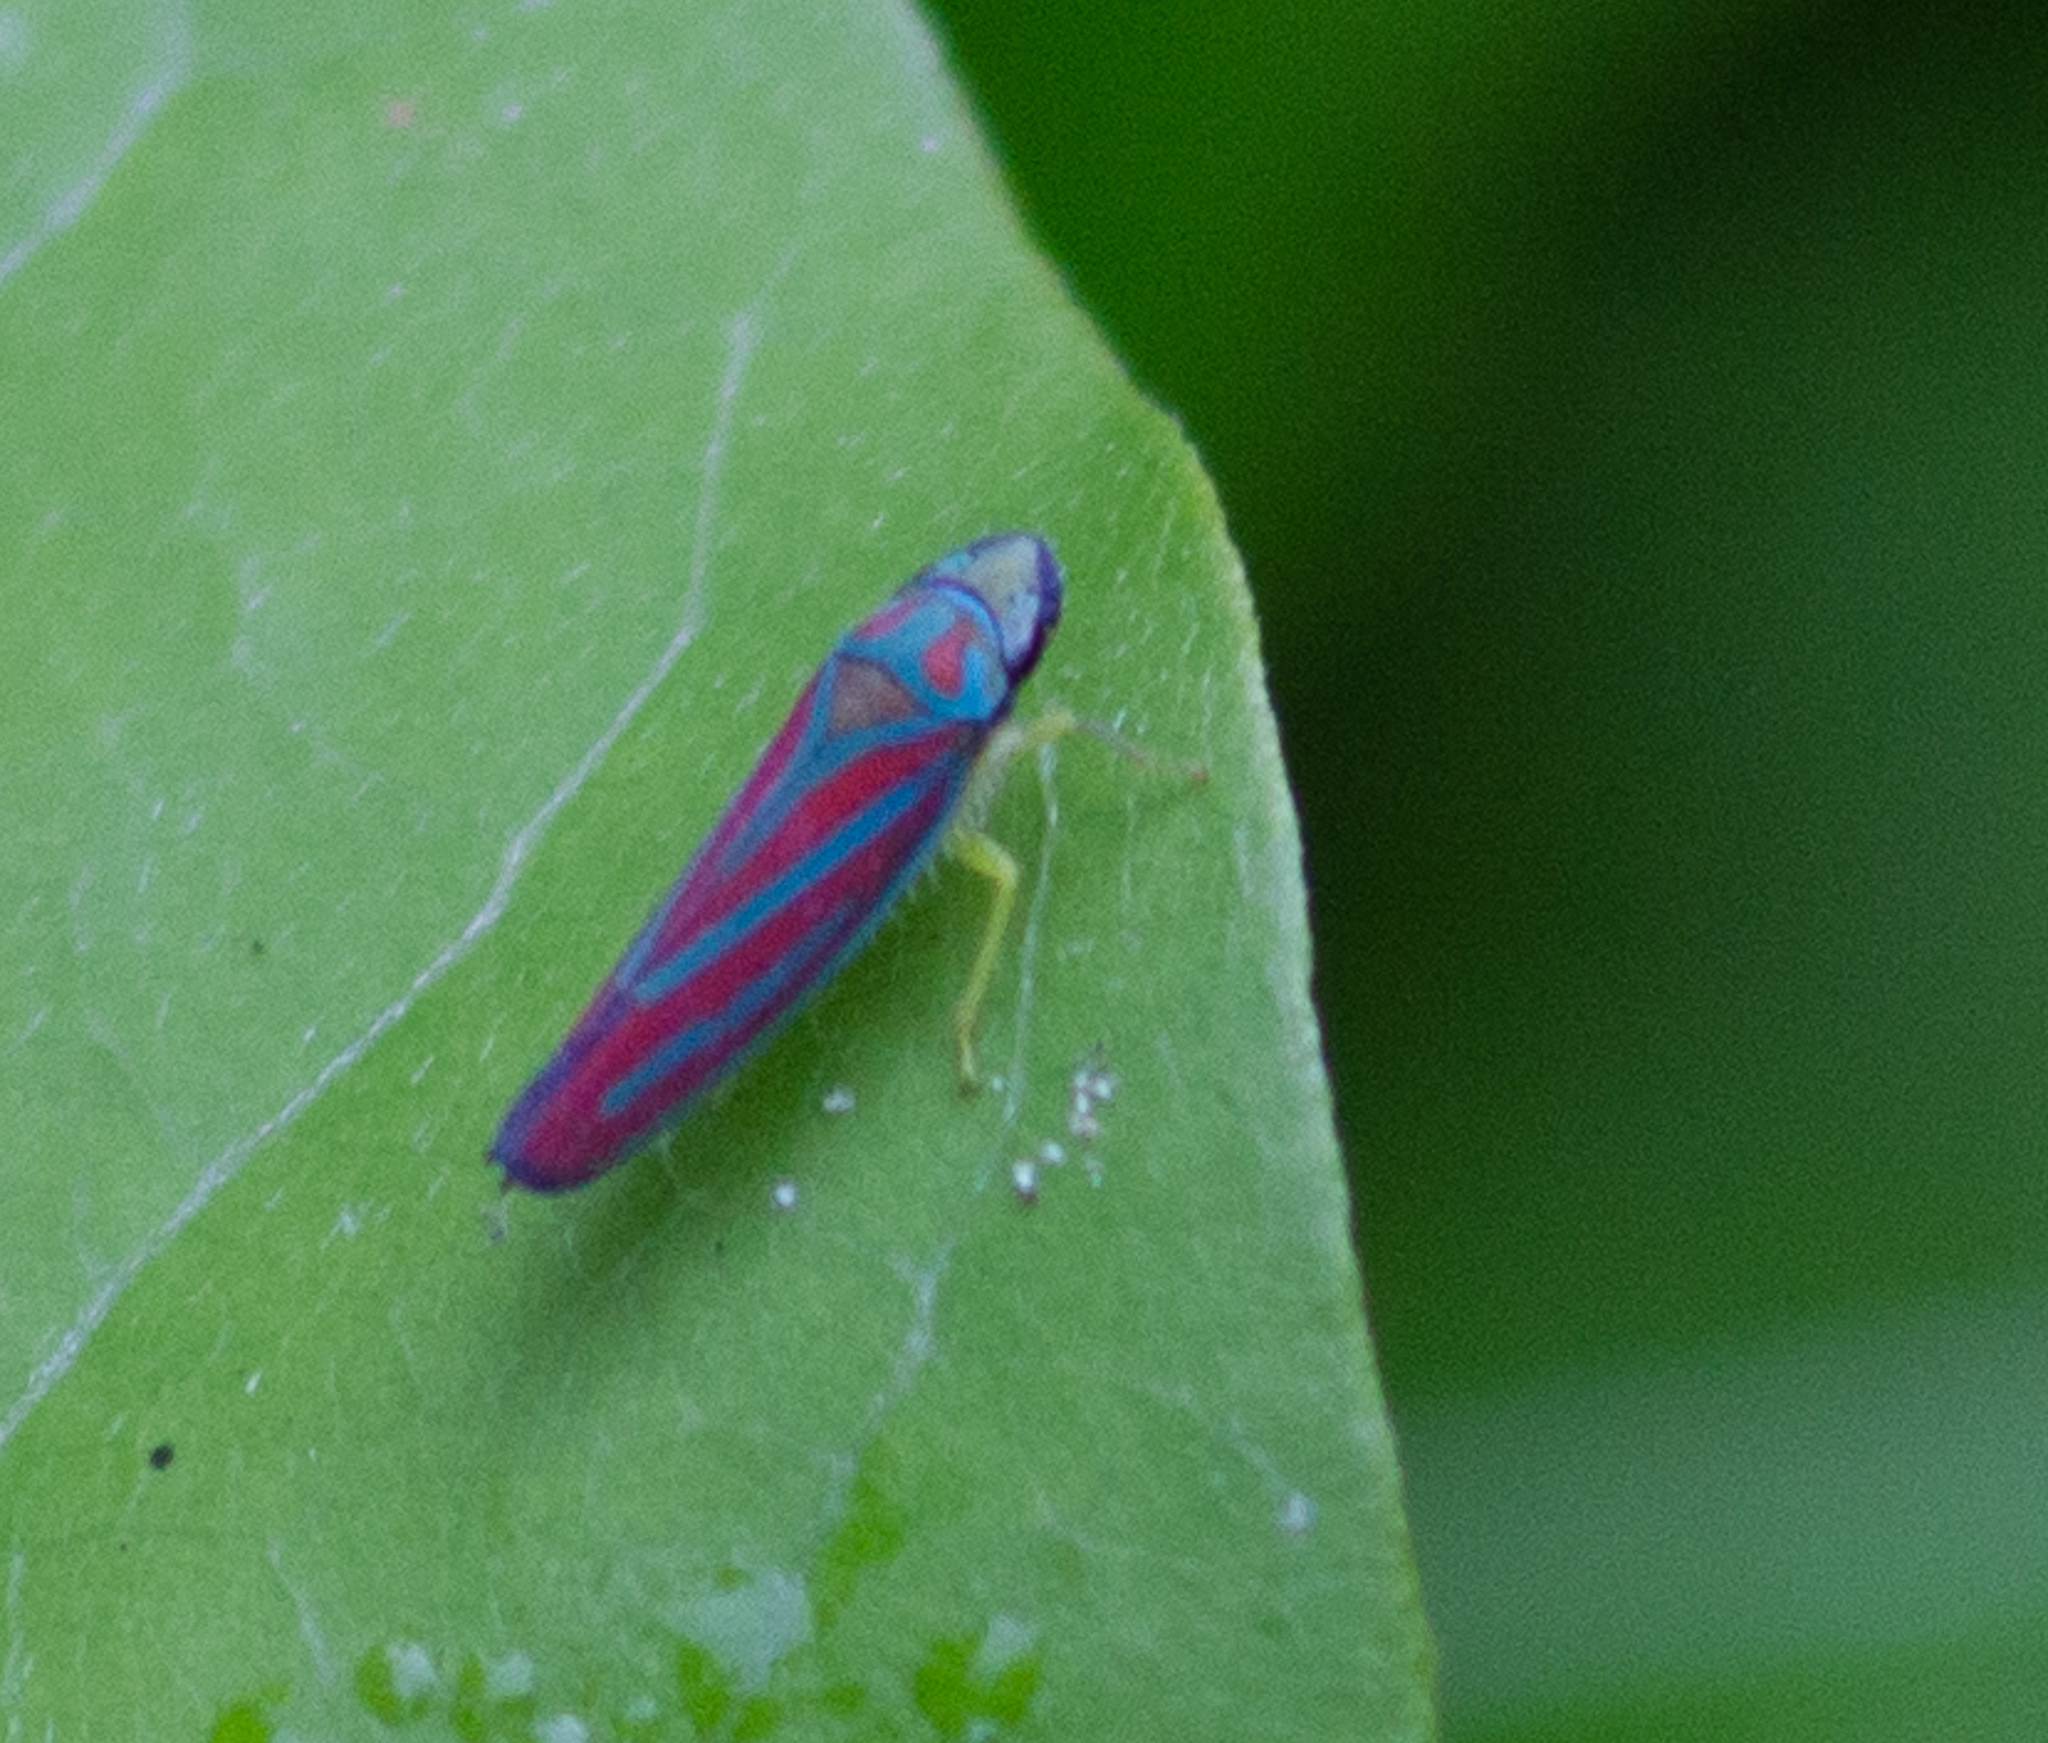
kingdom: Animalia
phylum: Arthropoda
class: Insecta
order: Hemiptera
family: Cicadellidae
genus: Graphocephala
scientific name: Graphocephala coccinea
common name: Candy-striped leafhopper
